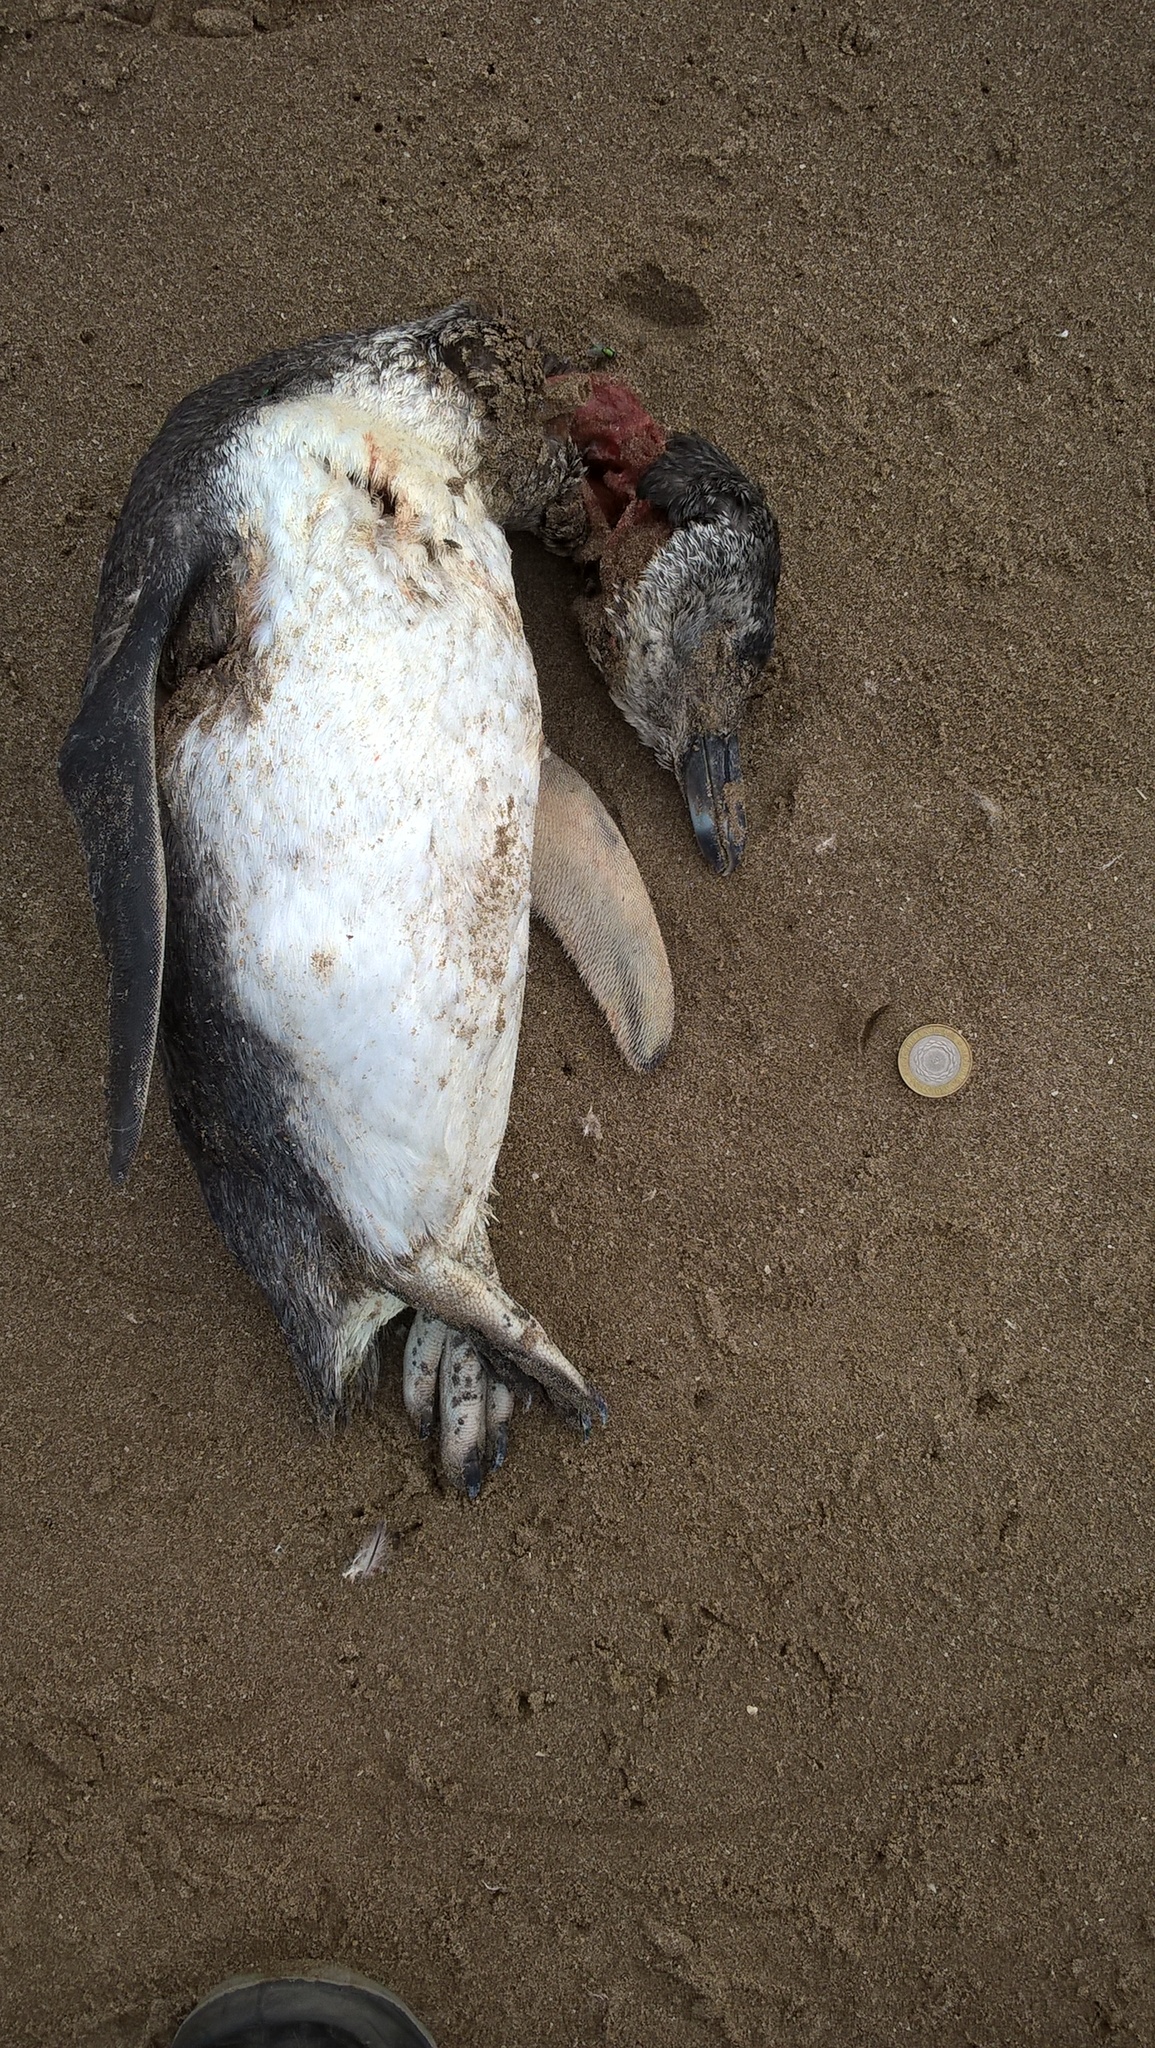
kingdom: Animalia
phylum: Chordata
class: Aves
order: Sphenisciformes
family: Spheniscidae
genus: Spheniscus
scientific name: Spheniscus magellanicus
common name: Magellanic penguin
